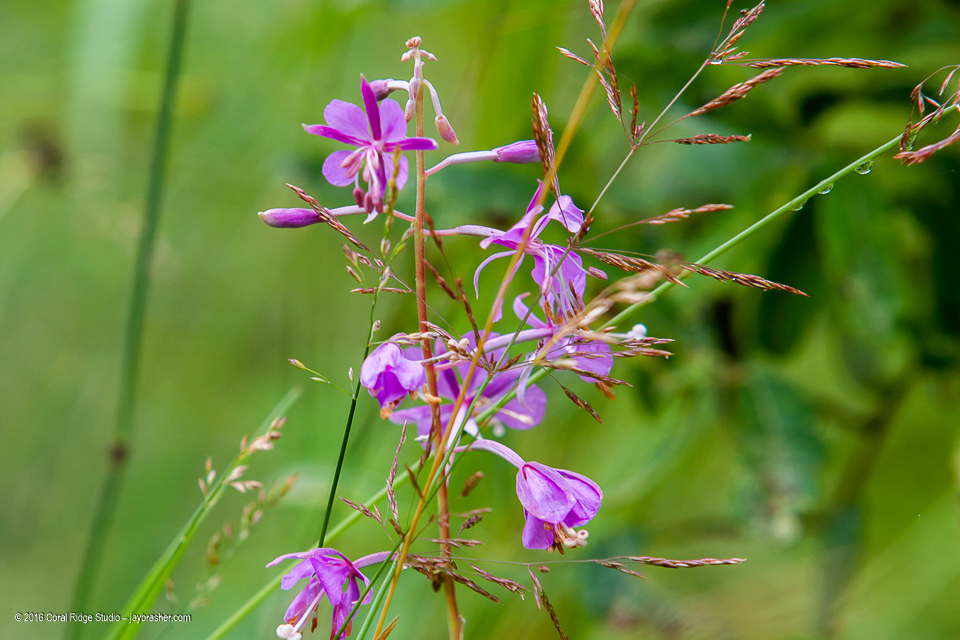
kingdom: Plantae
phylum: Tracheophyta
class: Magnoliopsida
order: Myrtales
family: Onagraceae
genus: Chamaenerion
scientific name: Chamaenerion angustifolium
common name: Fireweed
